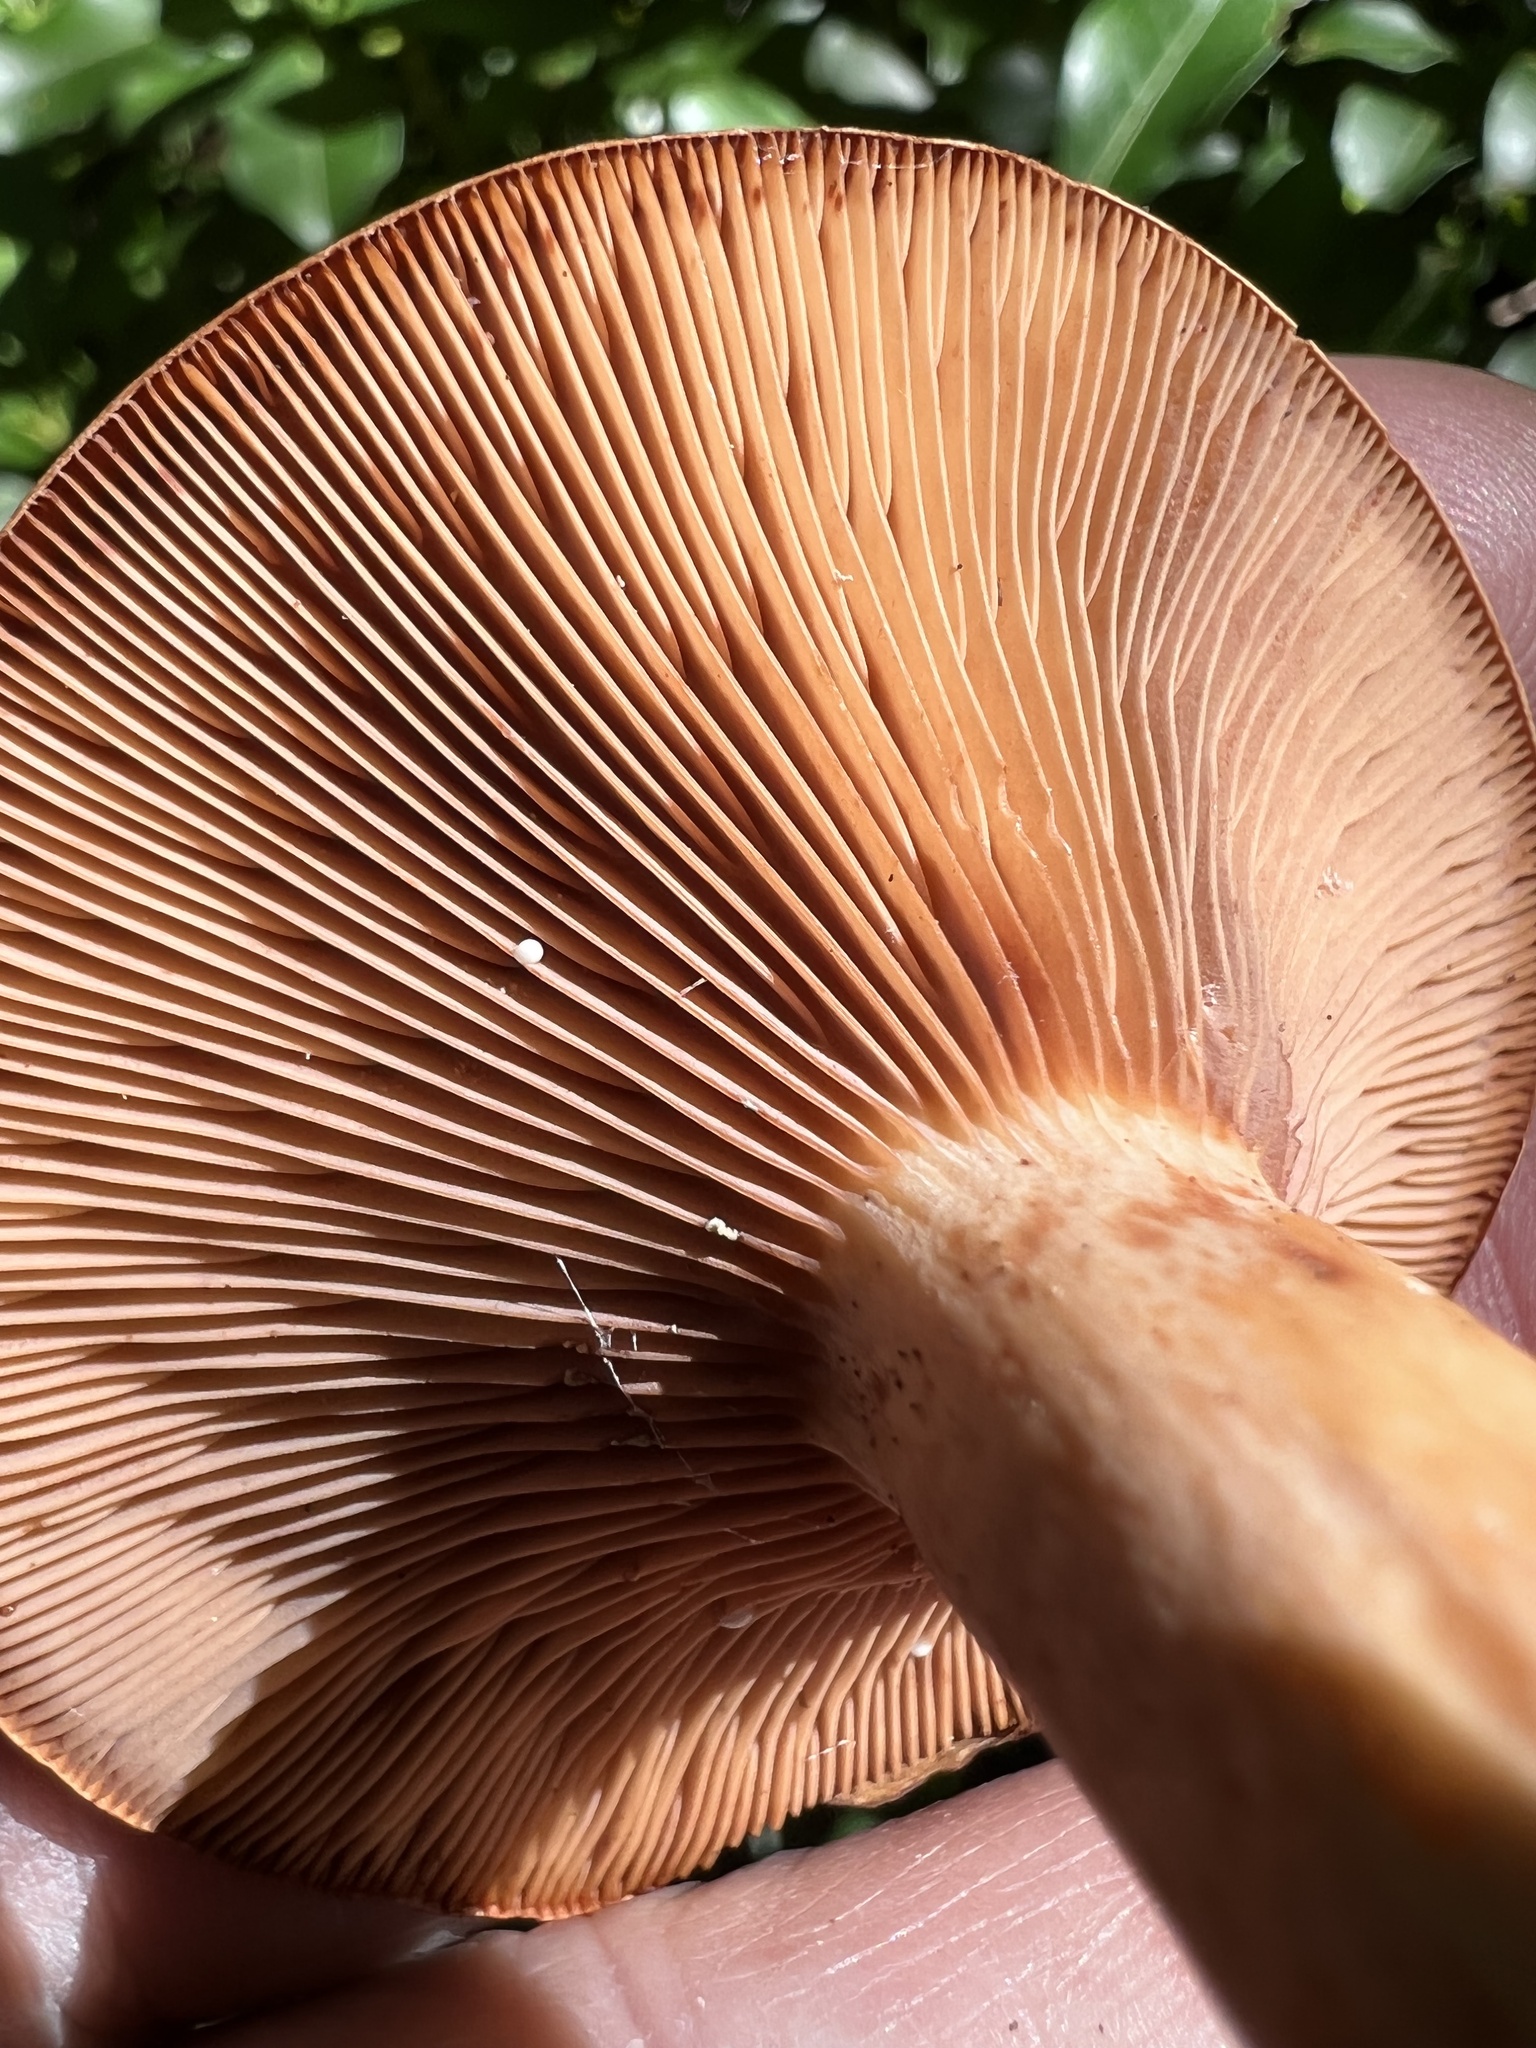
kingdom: Fungi
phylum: Basidiomycota
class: Agaricomycetes
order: Russulales
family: Russulaceae
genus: Lactarius
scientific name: Lactarius peckii
